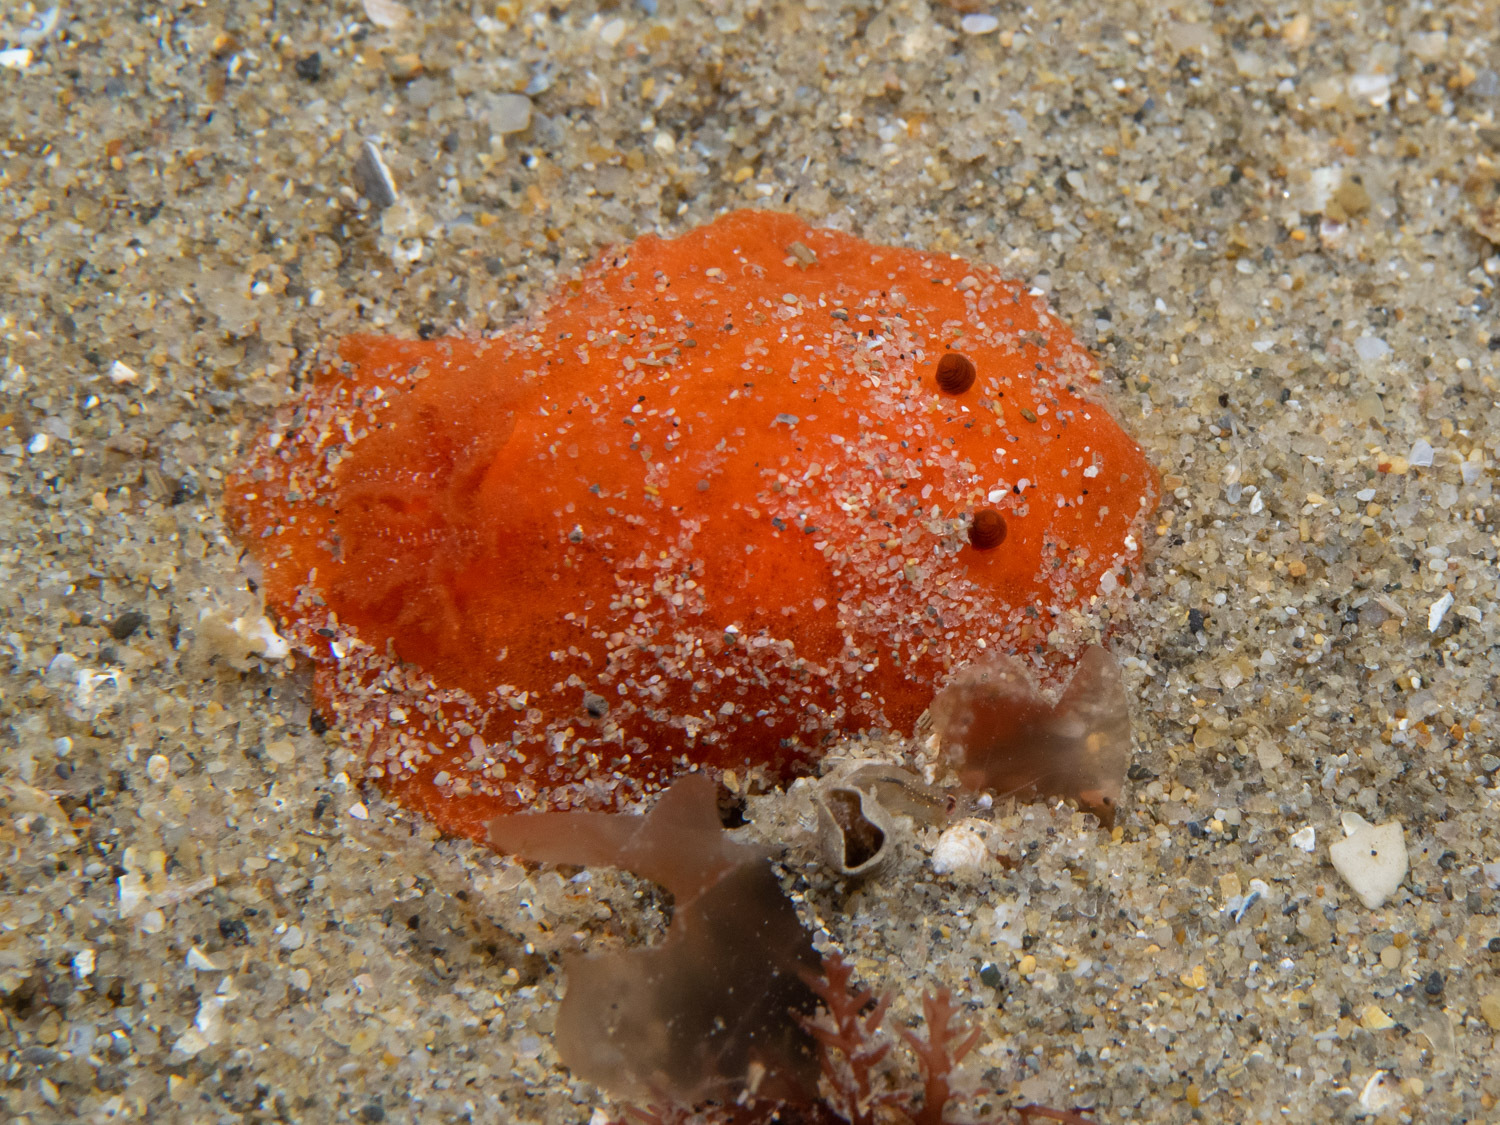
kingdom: Animalia
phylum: Mollusca
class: Gastropoda
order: Nudibranchia
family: Discodorididae
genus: Discodoris
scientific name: Discodoris paroa
